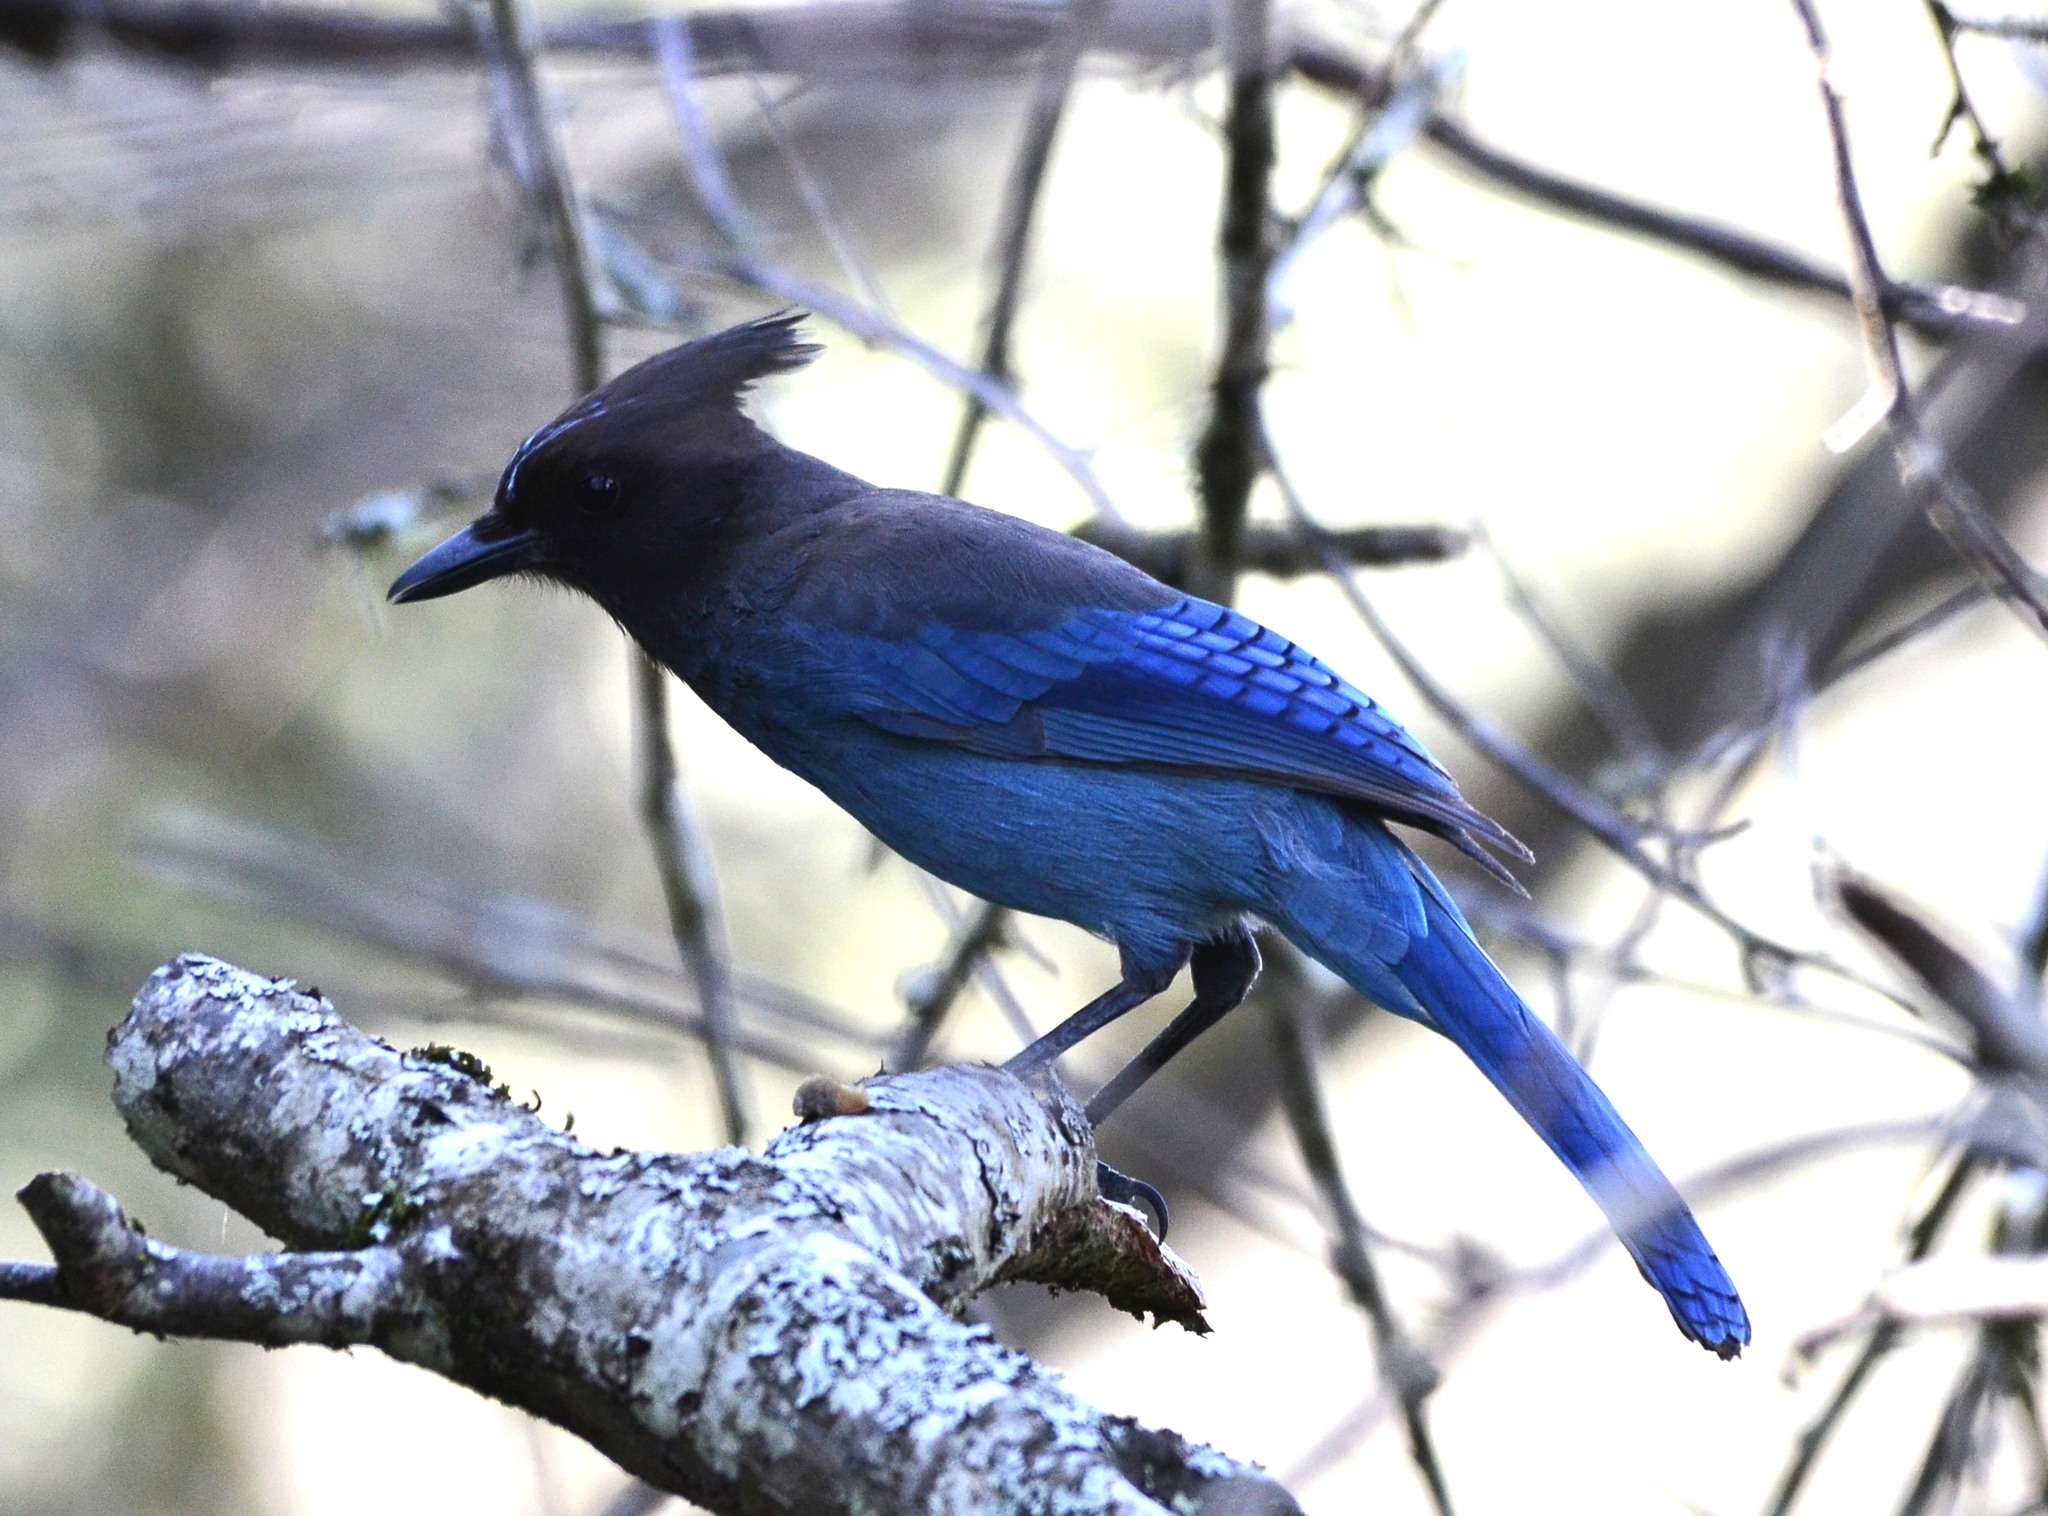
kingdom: Animalia
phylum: Chordata
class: Aves
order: Passeriformes
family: Corvidae
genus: Cyanocitta
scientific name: Cyanocitta stelleri
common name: Steller's jay
